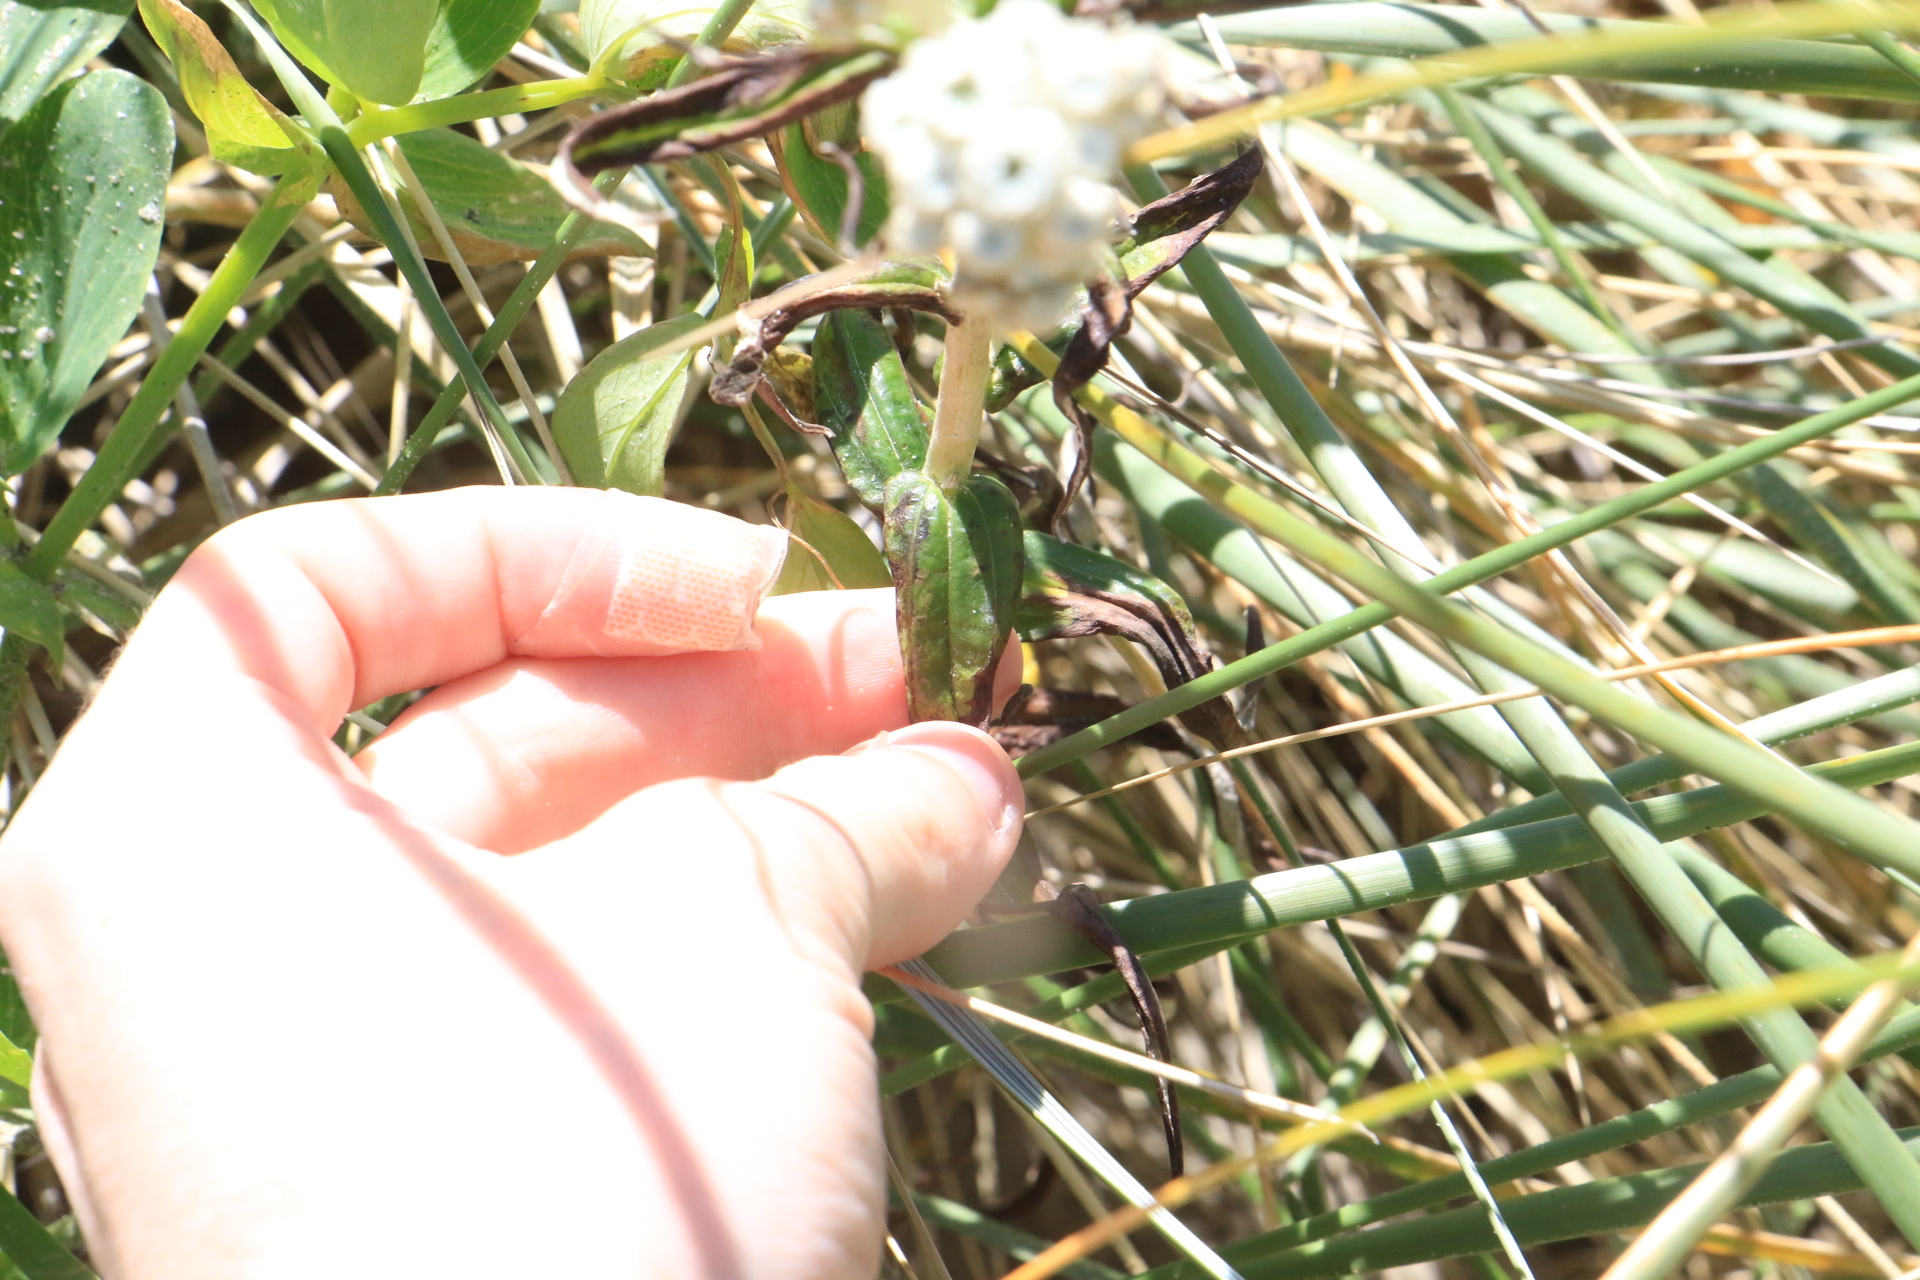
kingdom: Plantae
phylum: Tracheophyta
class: Magnoliopsida
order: Asterales
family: Asteraceae
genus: Anaphalis
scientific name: Anaphalis margaritacea
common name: Pearly everlasting
